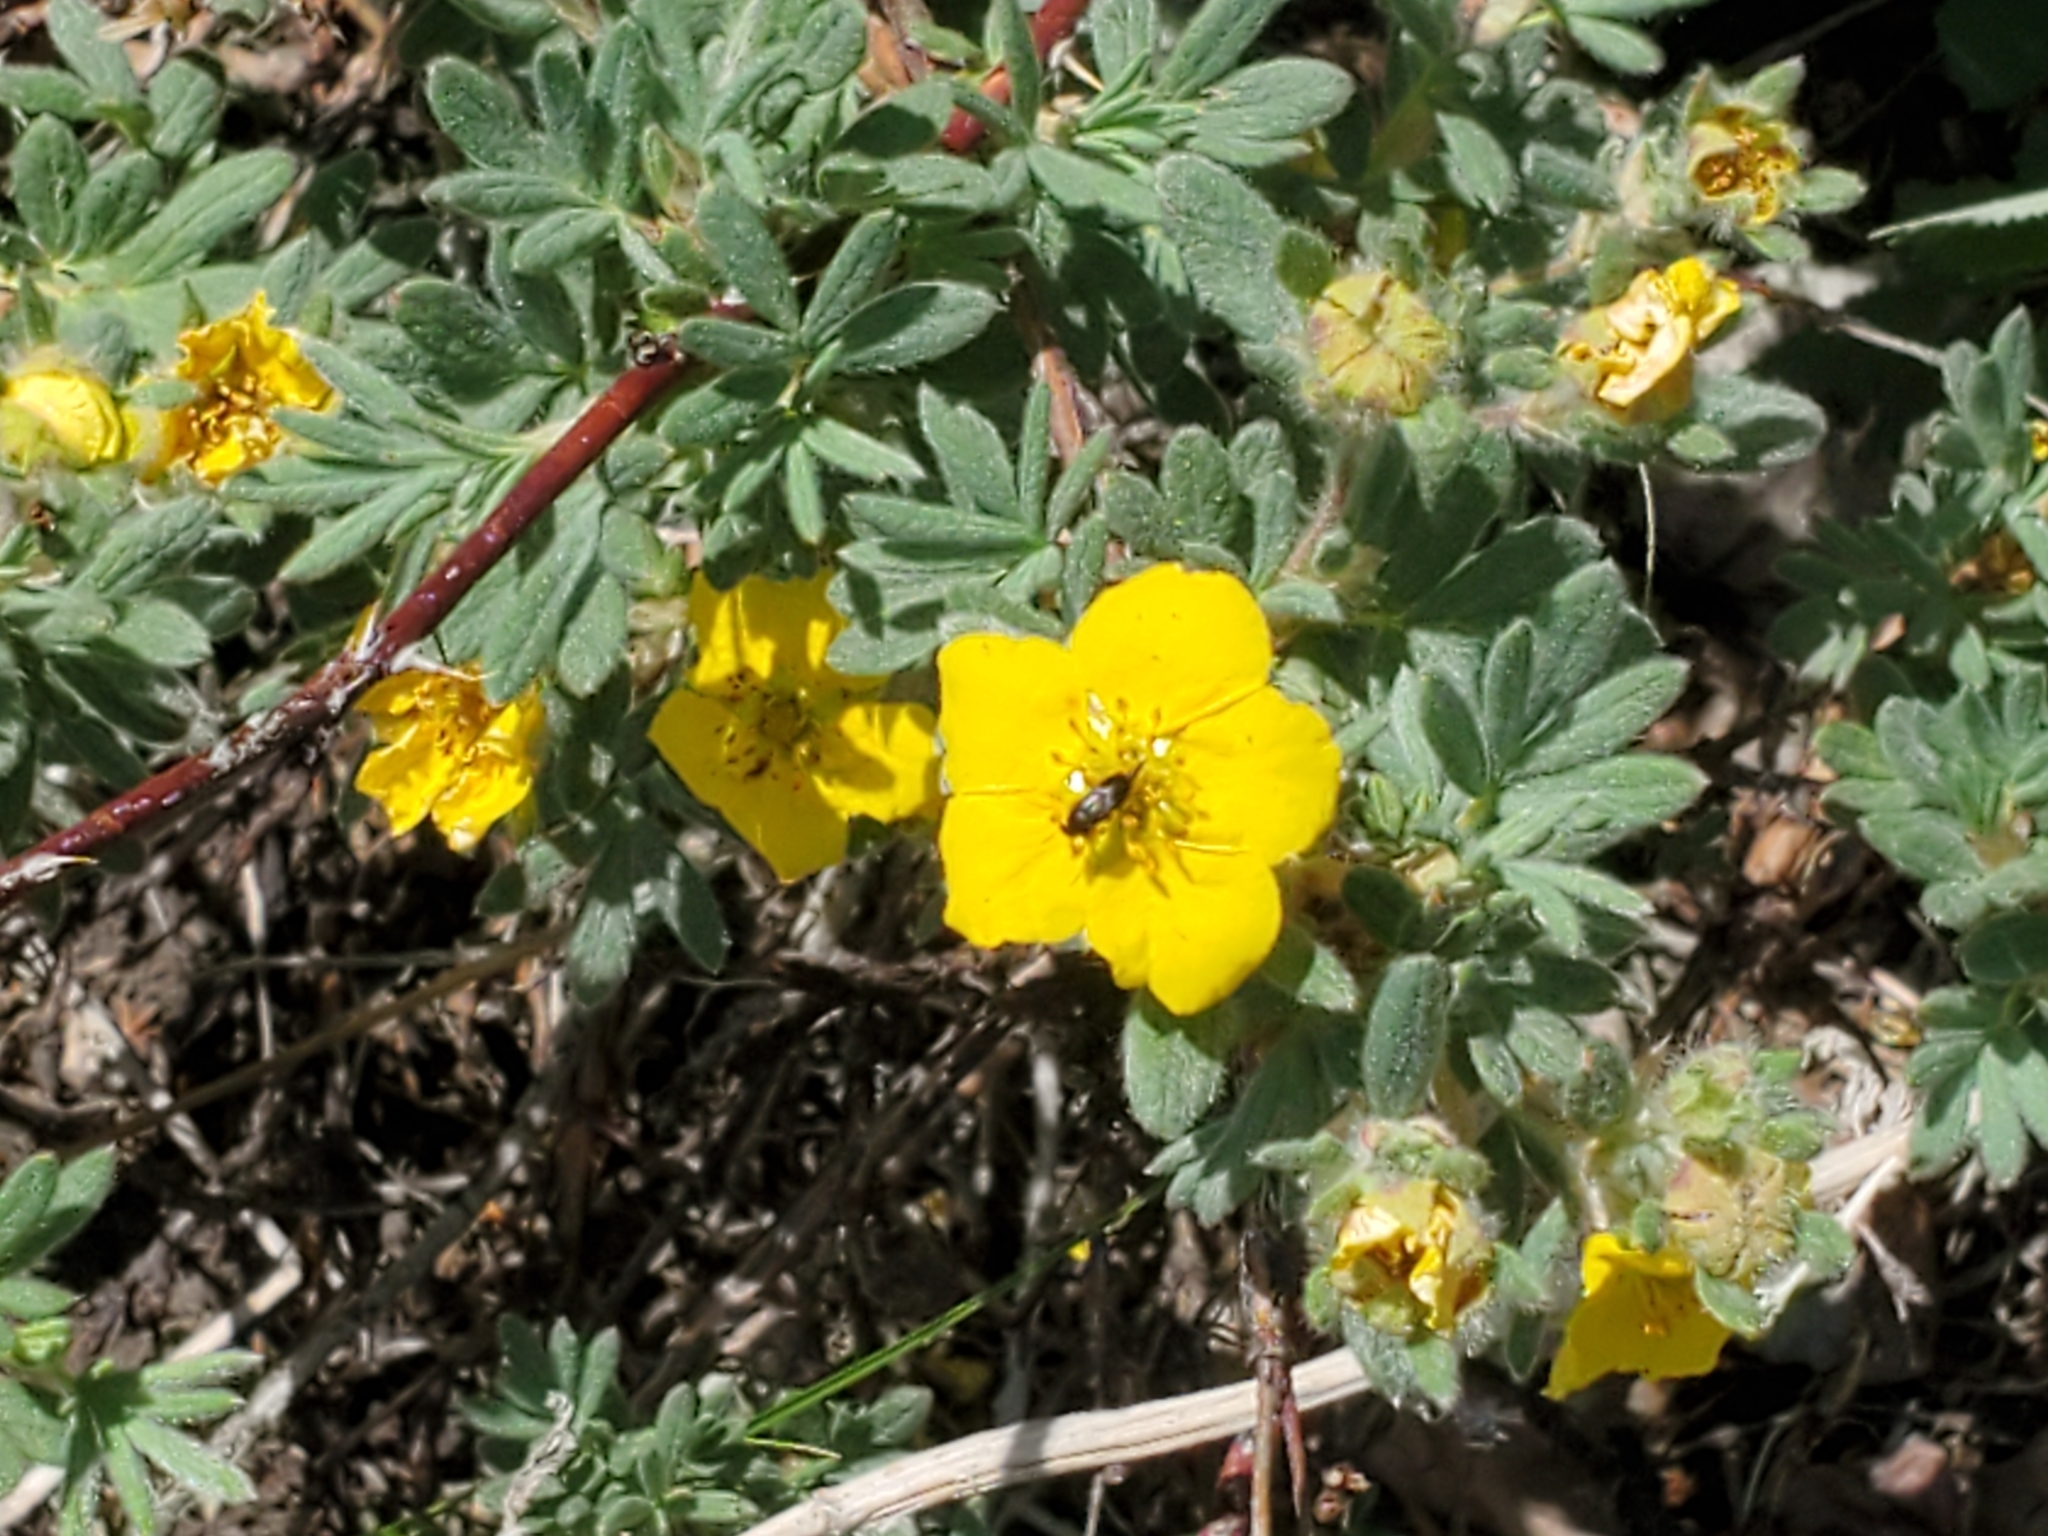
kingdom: Plantae
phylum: Tracheophyta
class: Magnoliopsida
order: Rosales
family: Rosaceae
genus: Dasiphora
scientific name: Dasiphora fruticosa
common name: Shrubby cinquefoil
